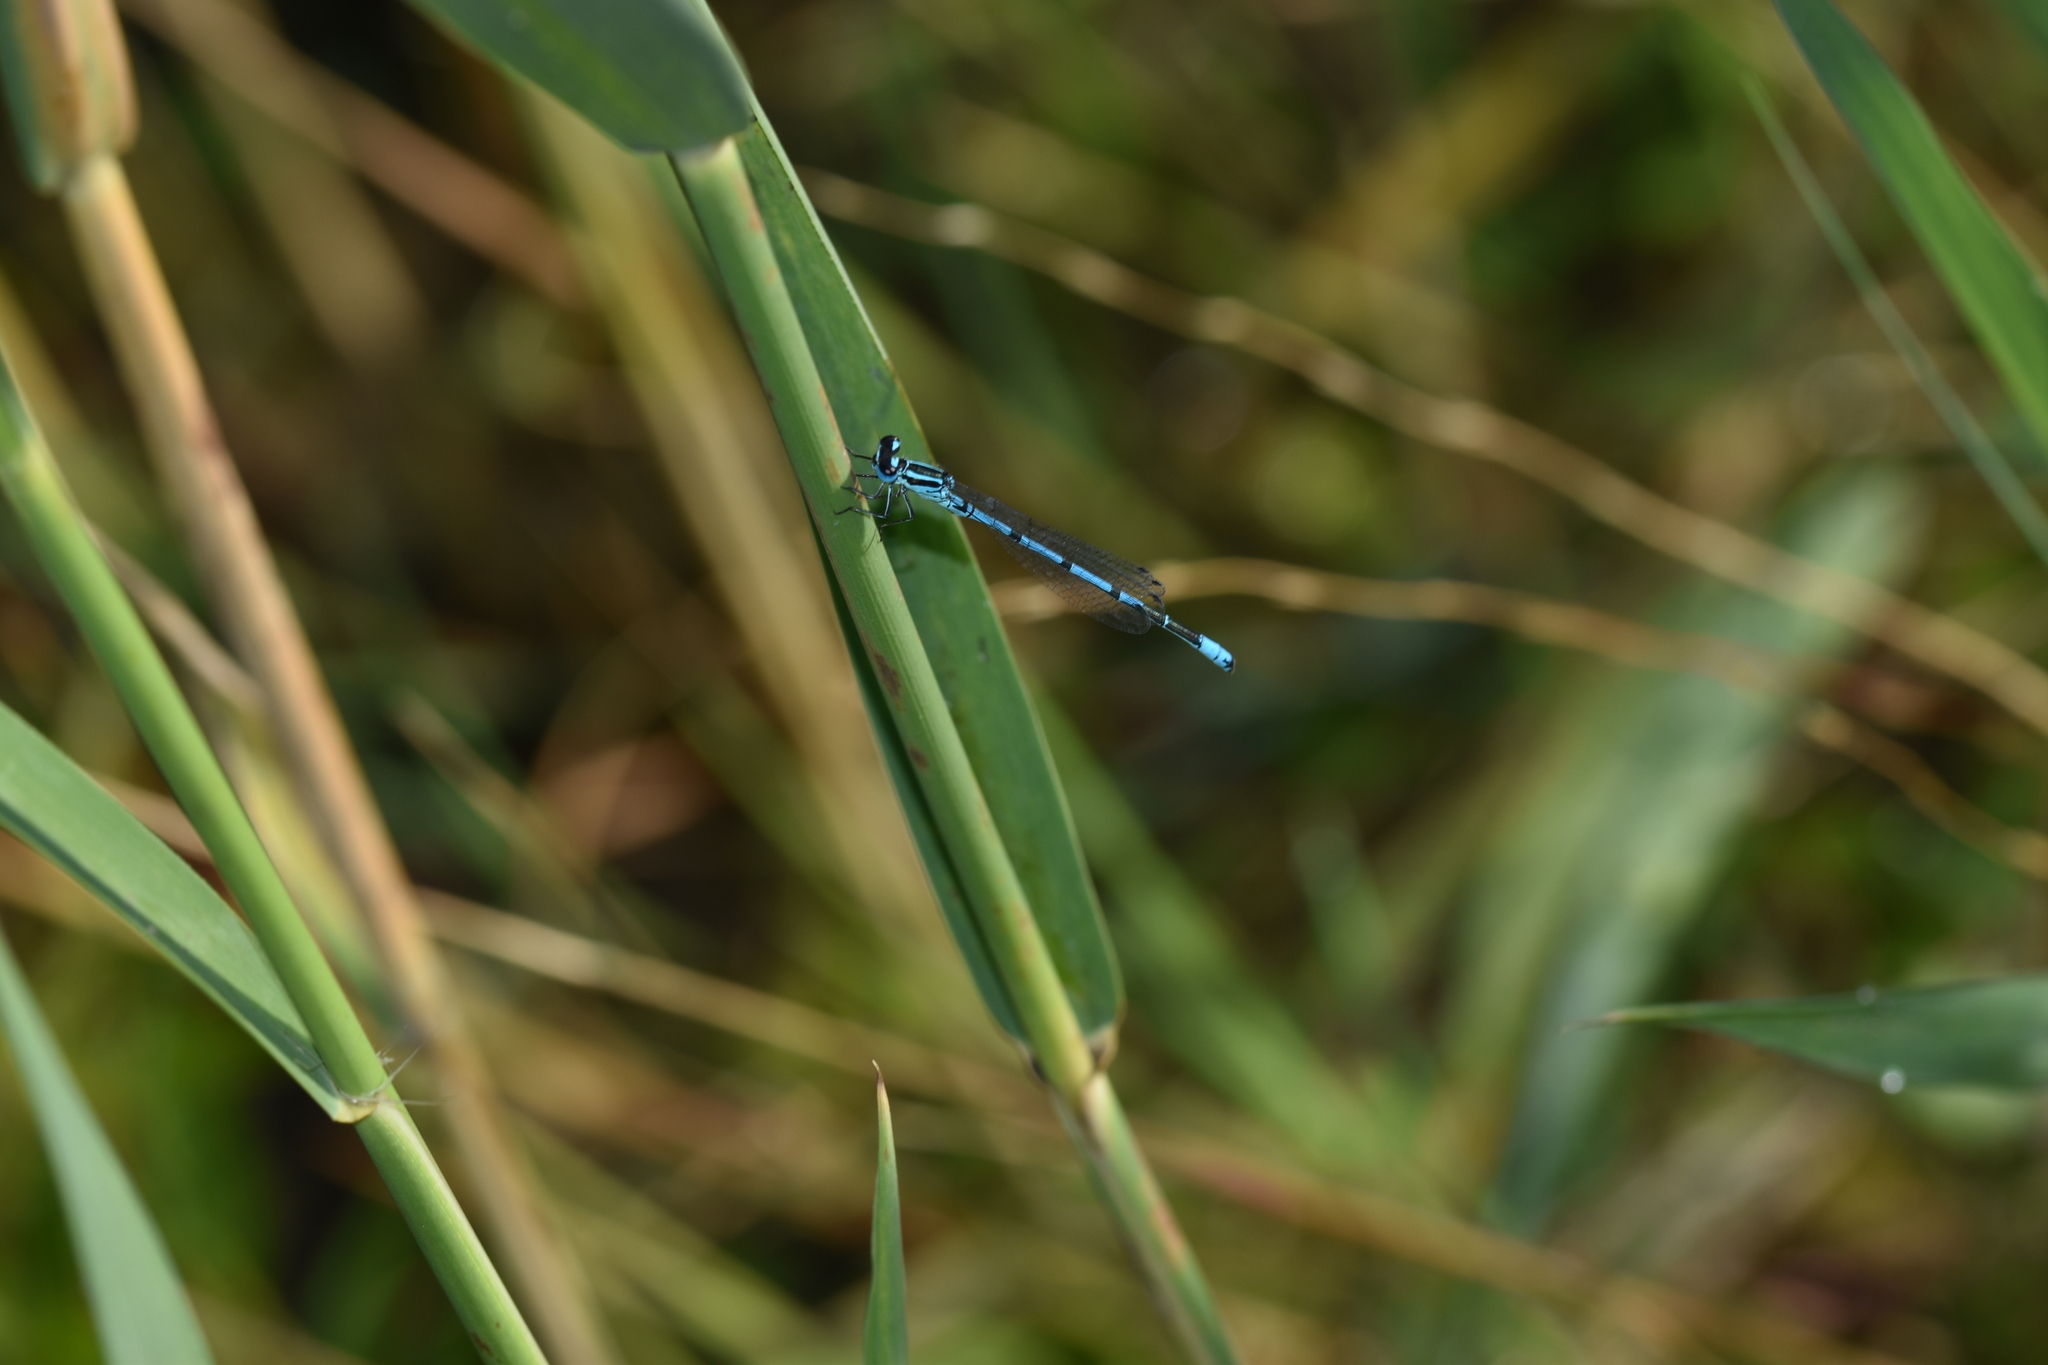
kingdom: Animalia
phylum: Arthropoda
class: Insecta
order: Odonata
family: Coenagrionidae
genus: Coenagrion
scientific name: Coenagrion puella
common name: Azure damselfly
